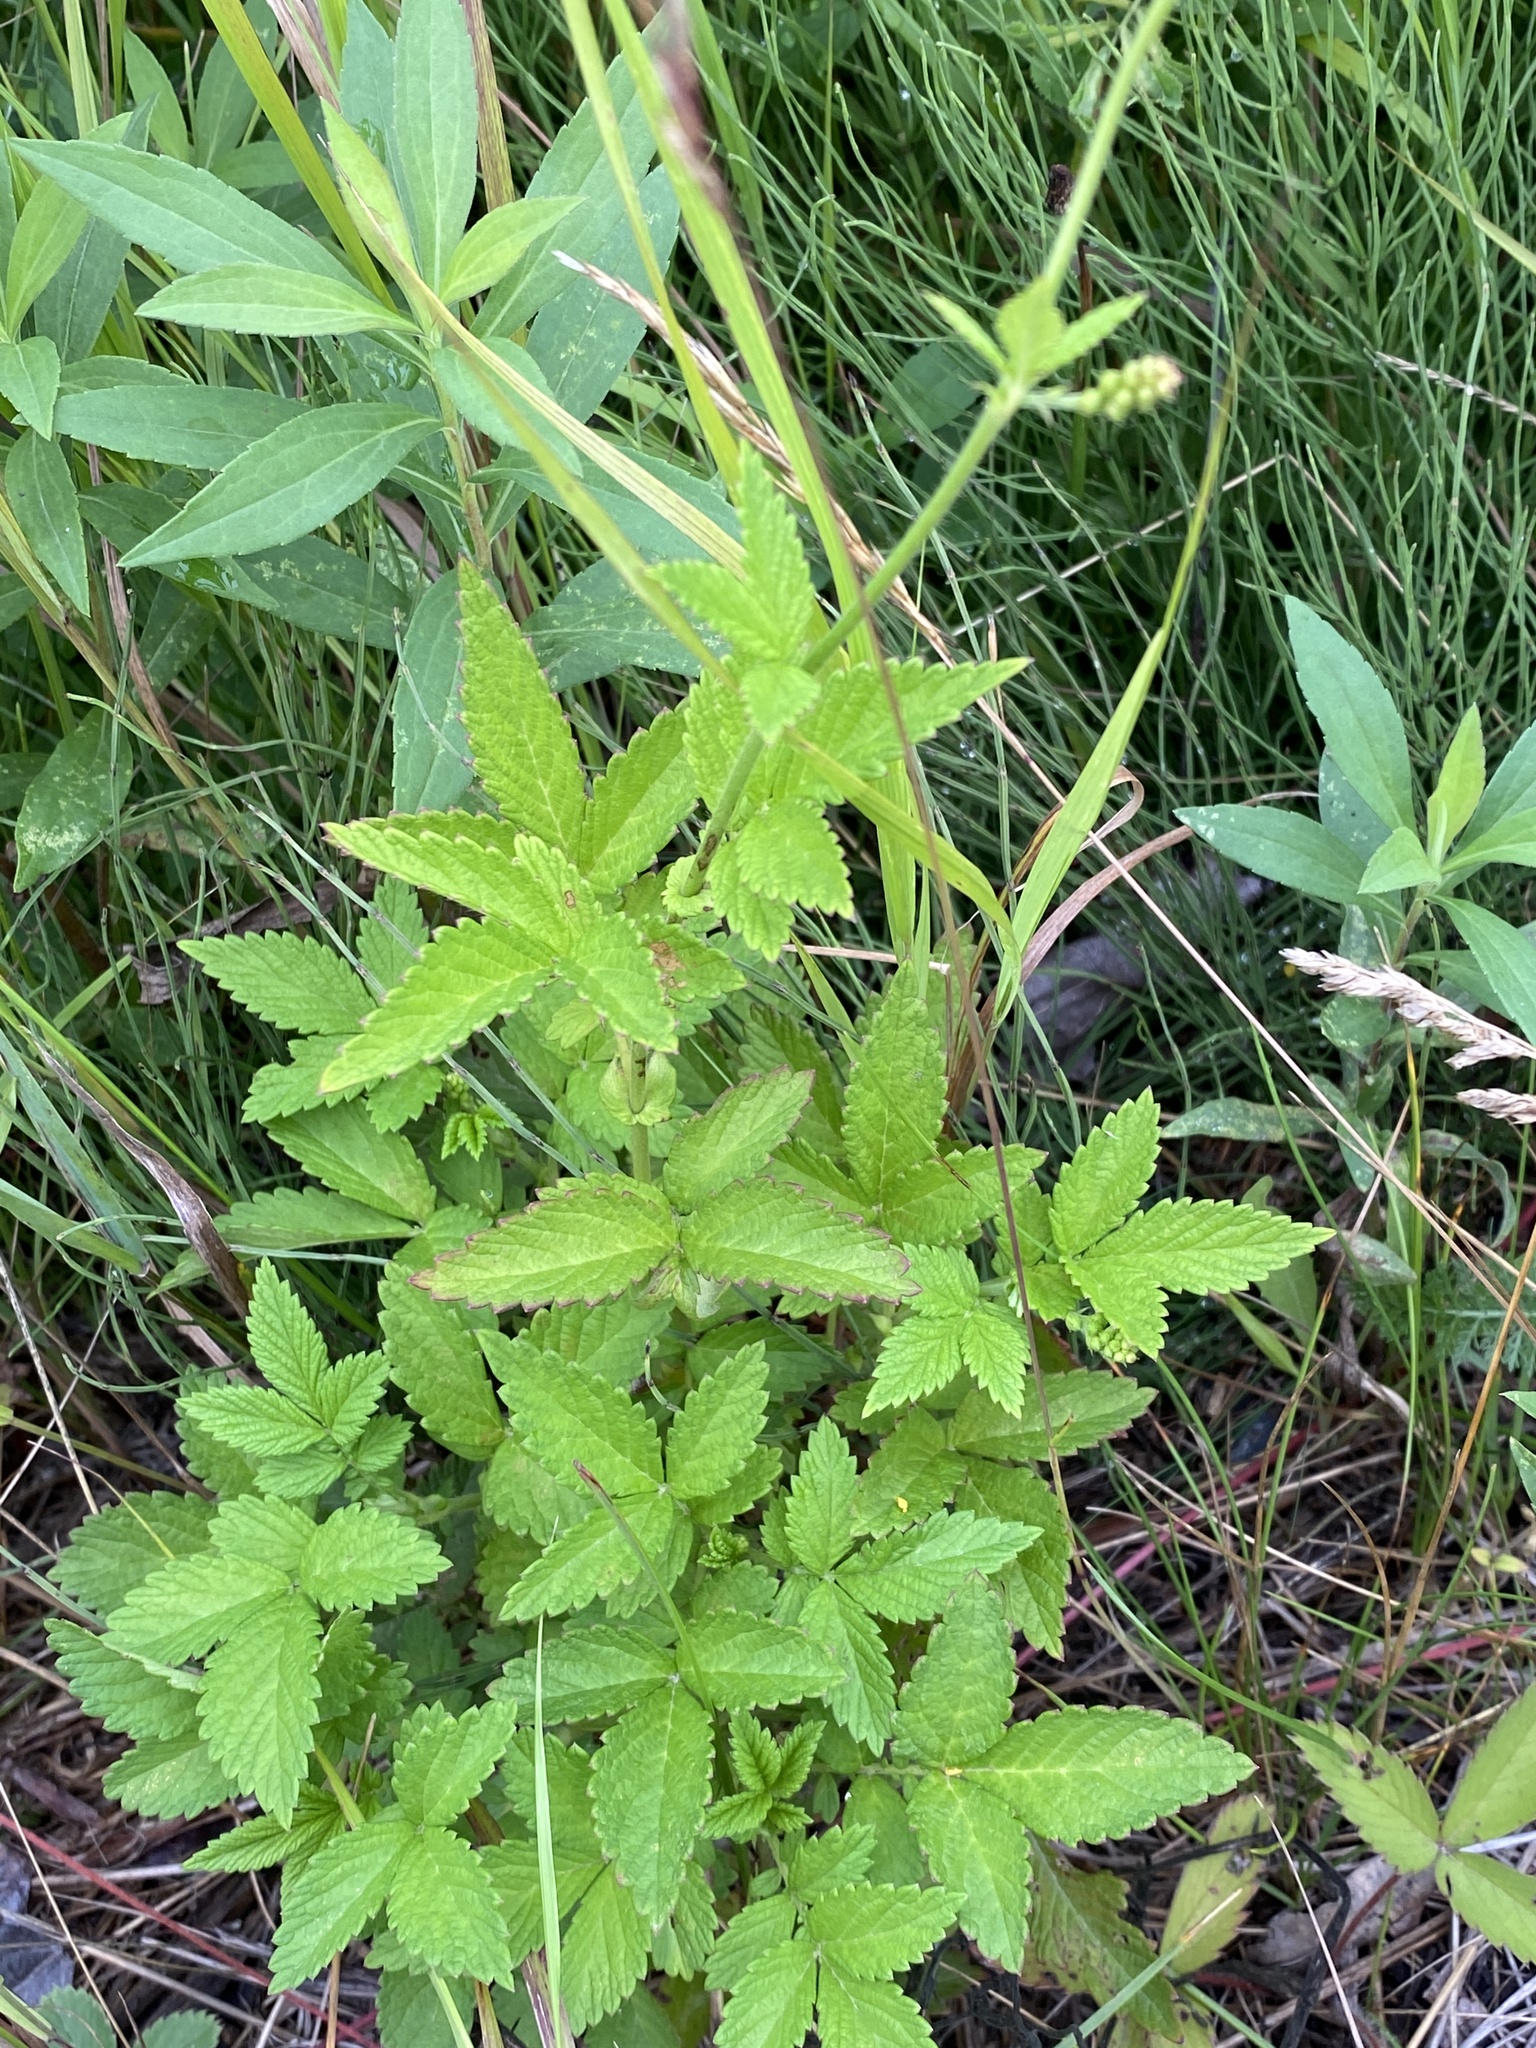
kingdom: Plantae
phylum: Tracheophyta
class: Magnoliopsida
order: Rosales
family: Rosaceae
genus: Agrimonia
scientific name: Agrimonia striata
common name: Britton's agrimony
